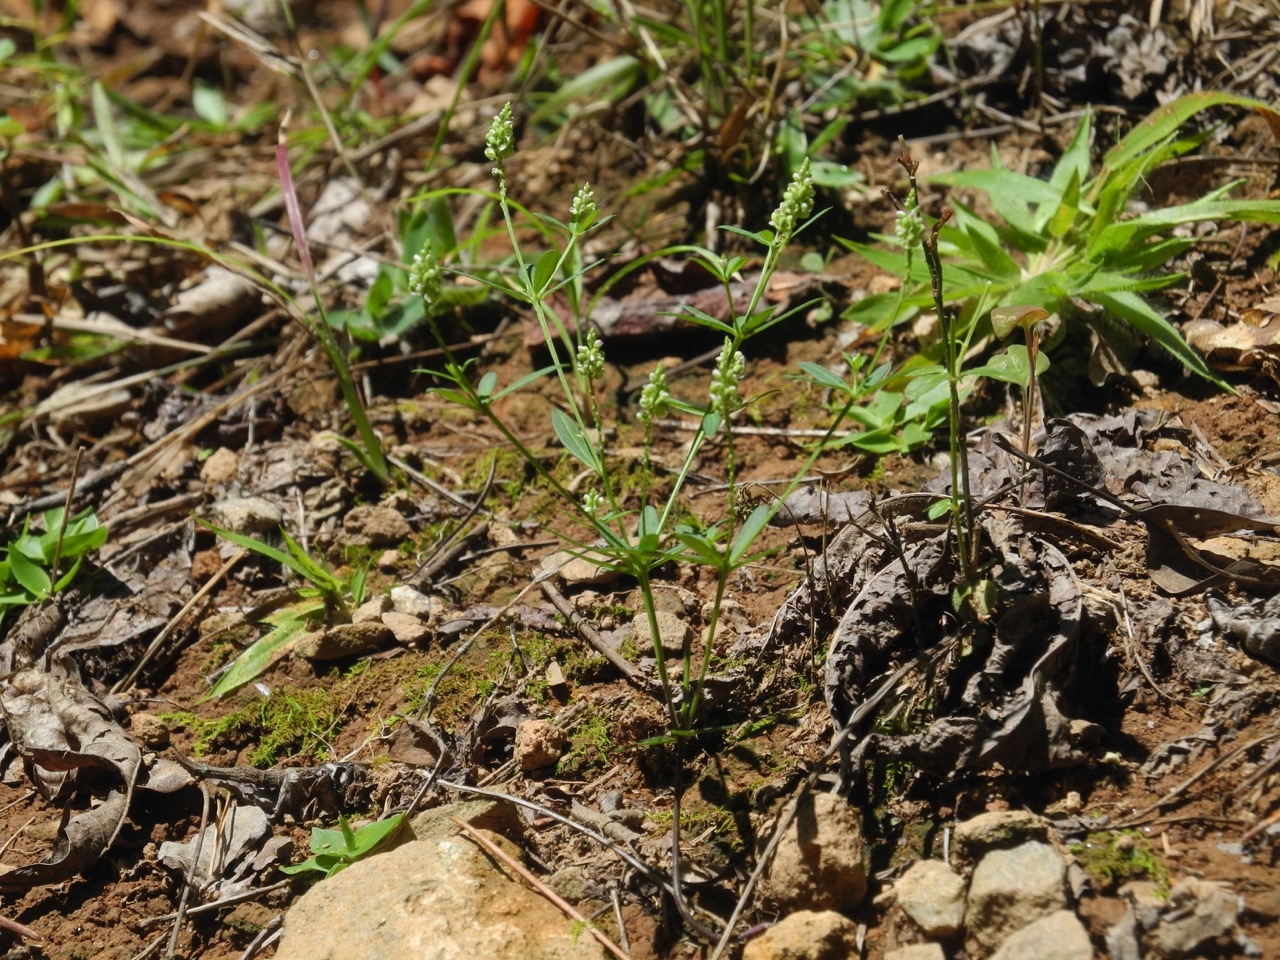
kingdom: Plantae
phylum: Tracheophyta
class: Magnoliopsida
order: Fabales
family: Polygalaceae
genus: Polygala
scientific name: Polygala verticillata
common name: Whorl milkwort
